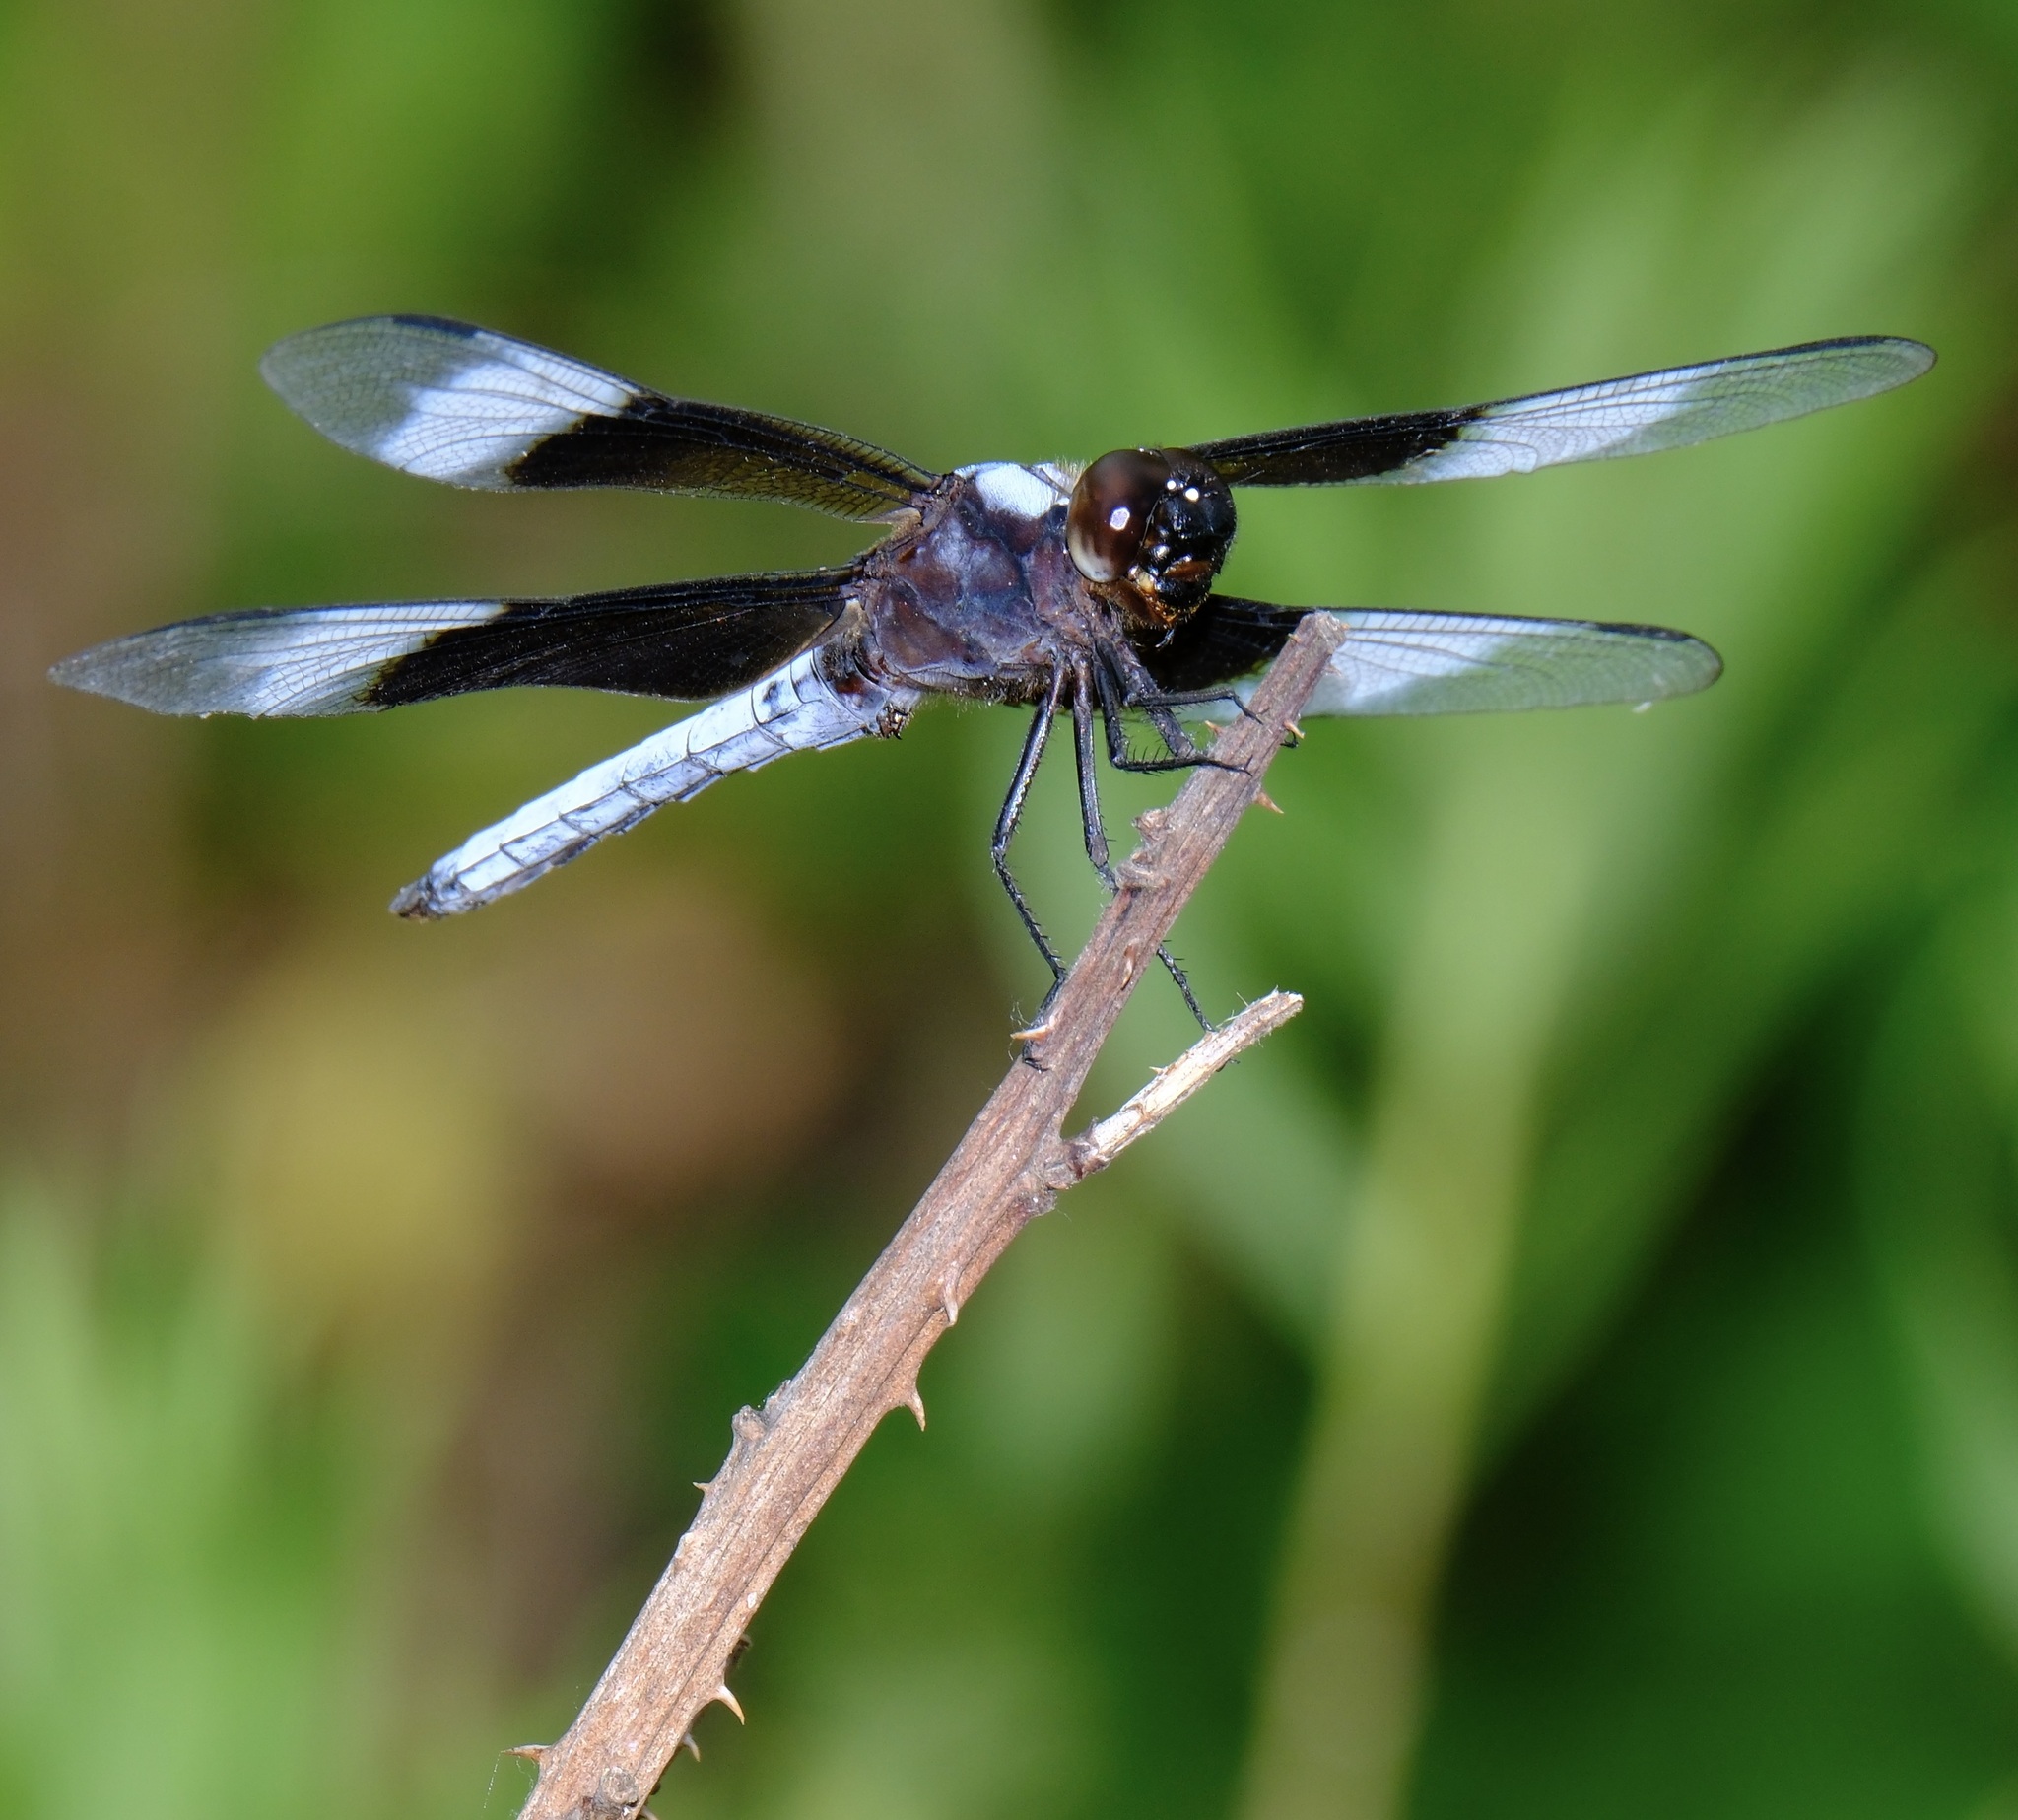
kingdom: Animalia
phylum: Arthropoda
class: Insecta
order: Odonata
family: Libellulidae
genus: Libellula
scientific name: Libellula luctuosa
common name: Widow skimmer
